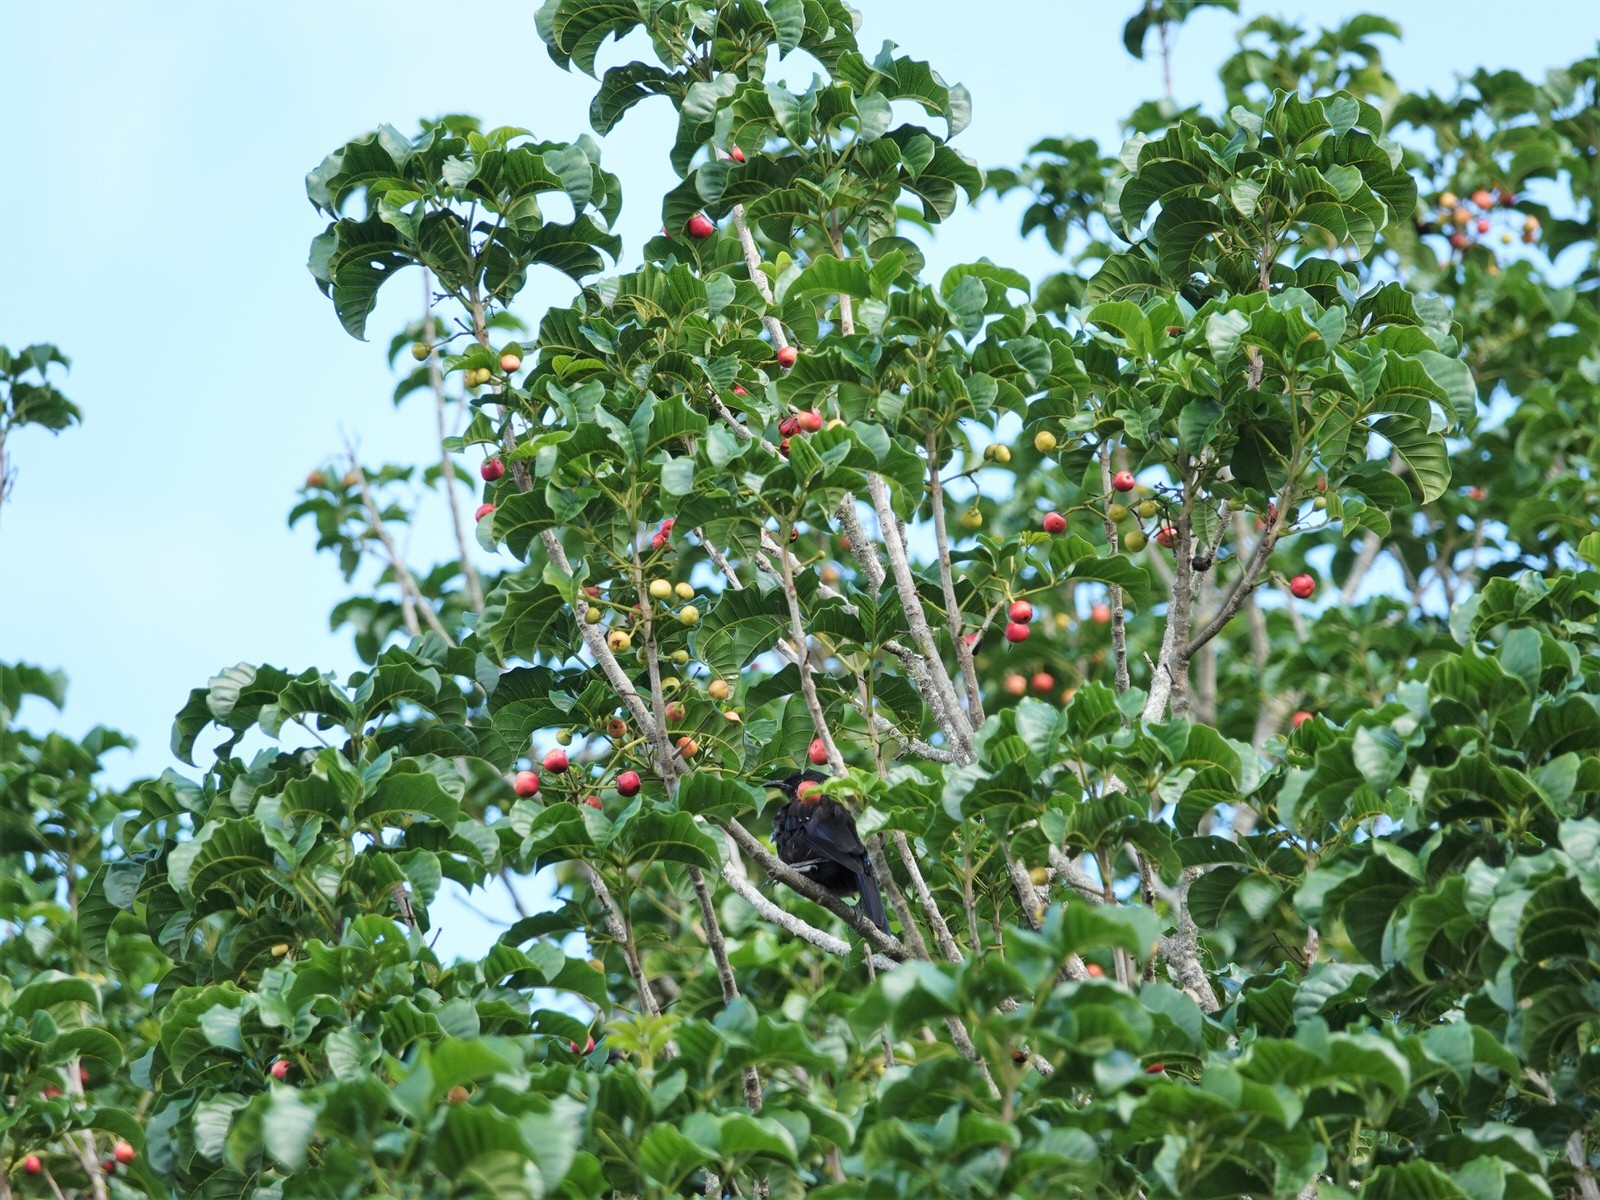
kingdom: Plantae
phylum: Tracheophyta
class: Magnoliopsida
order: Lamiales
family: Lamiaceae
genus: Vitex
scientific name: Vitex lucens
